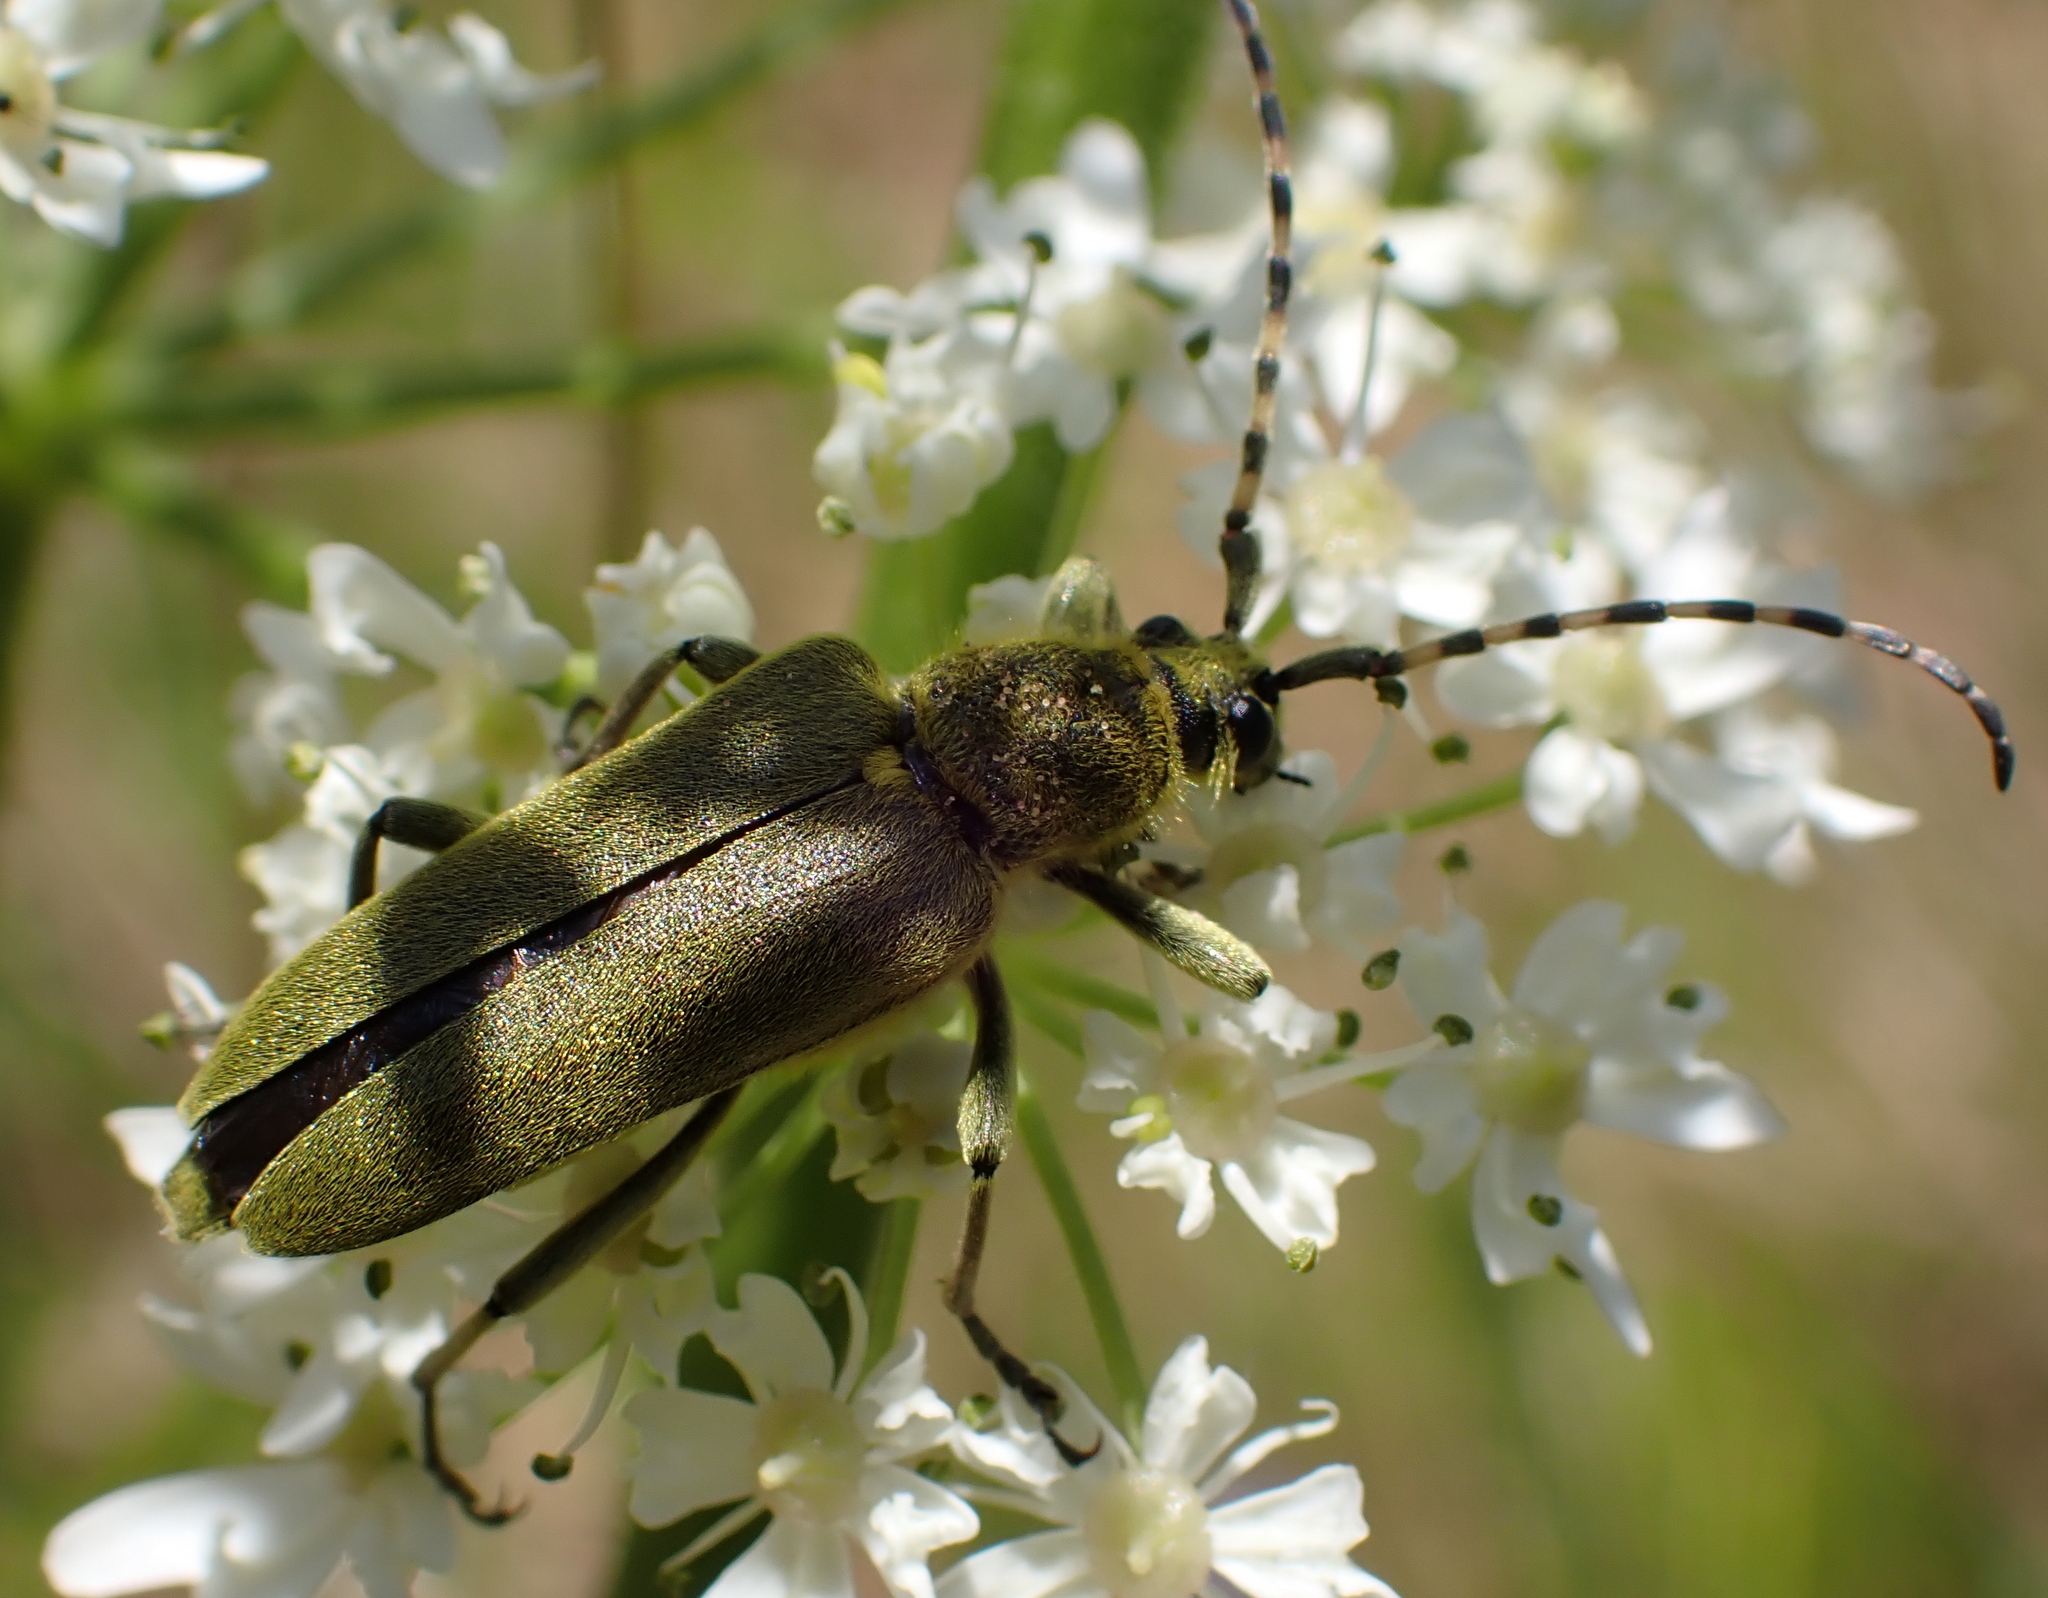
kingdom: Animalia
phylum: Arthropoda
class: Insecta
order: Coleoptera
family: Cerambycidae
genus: Lepturobosca
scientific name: Lepturobosca virens
